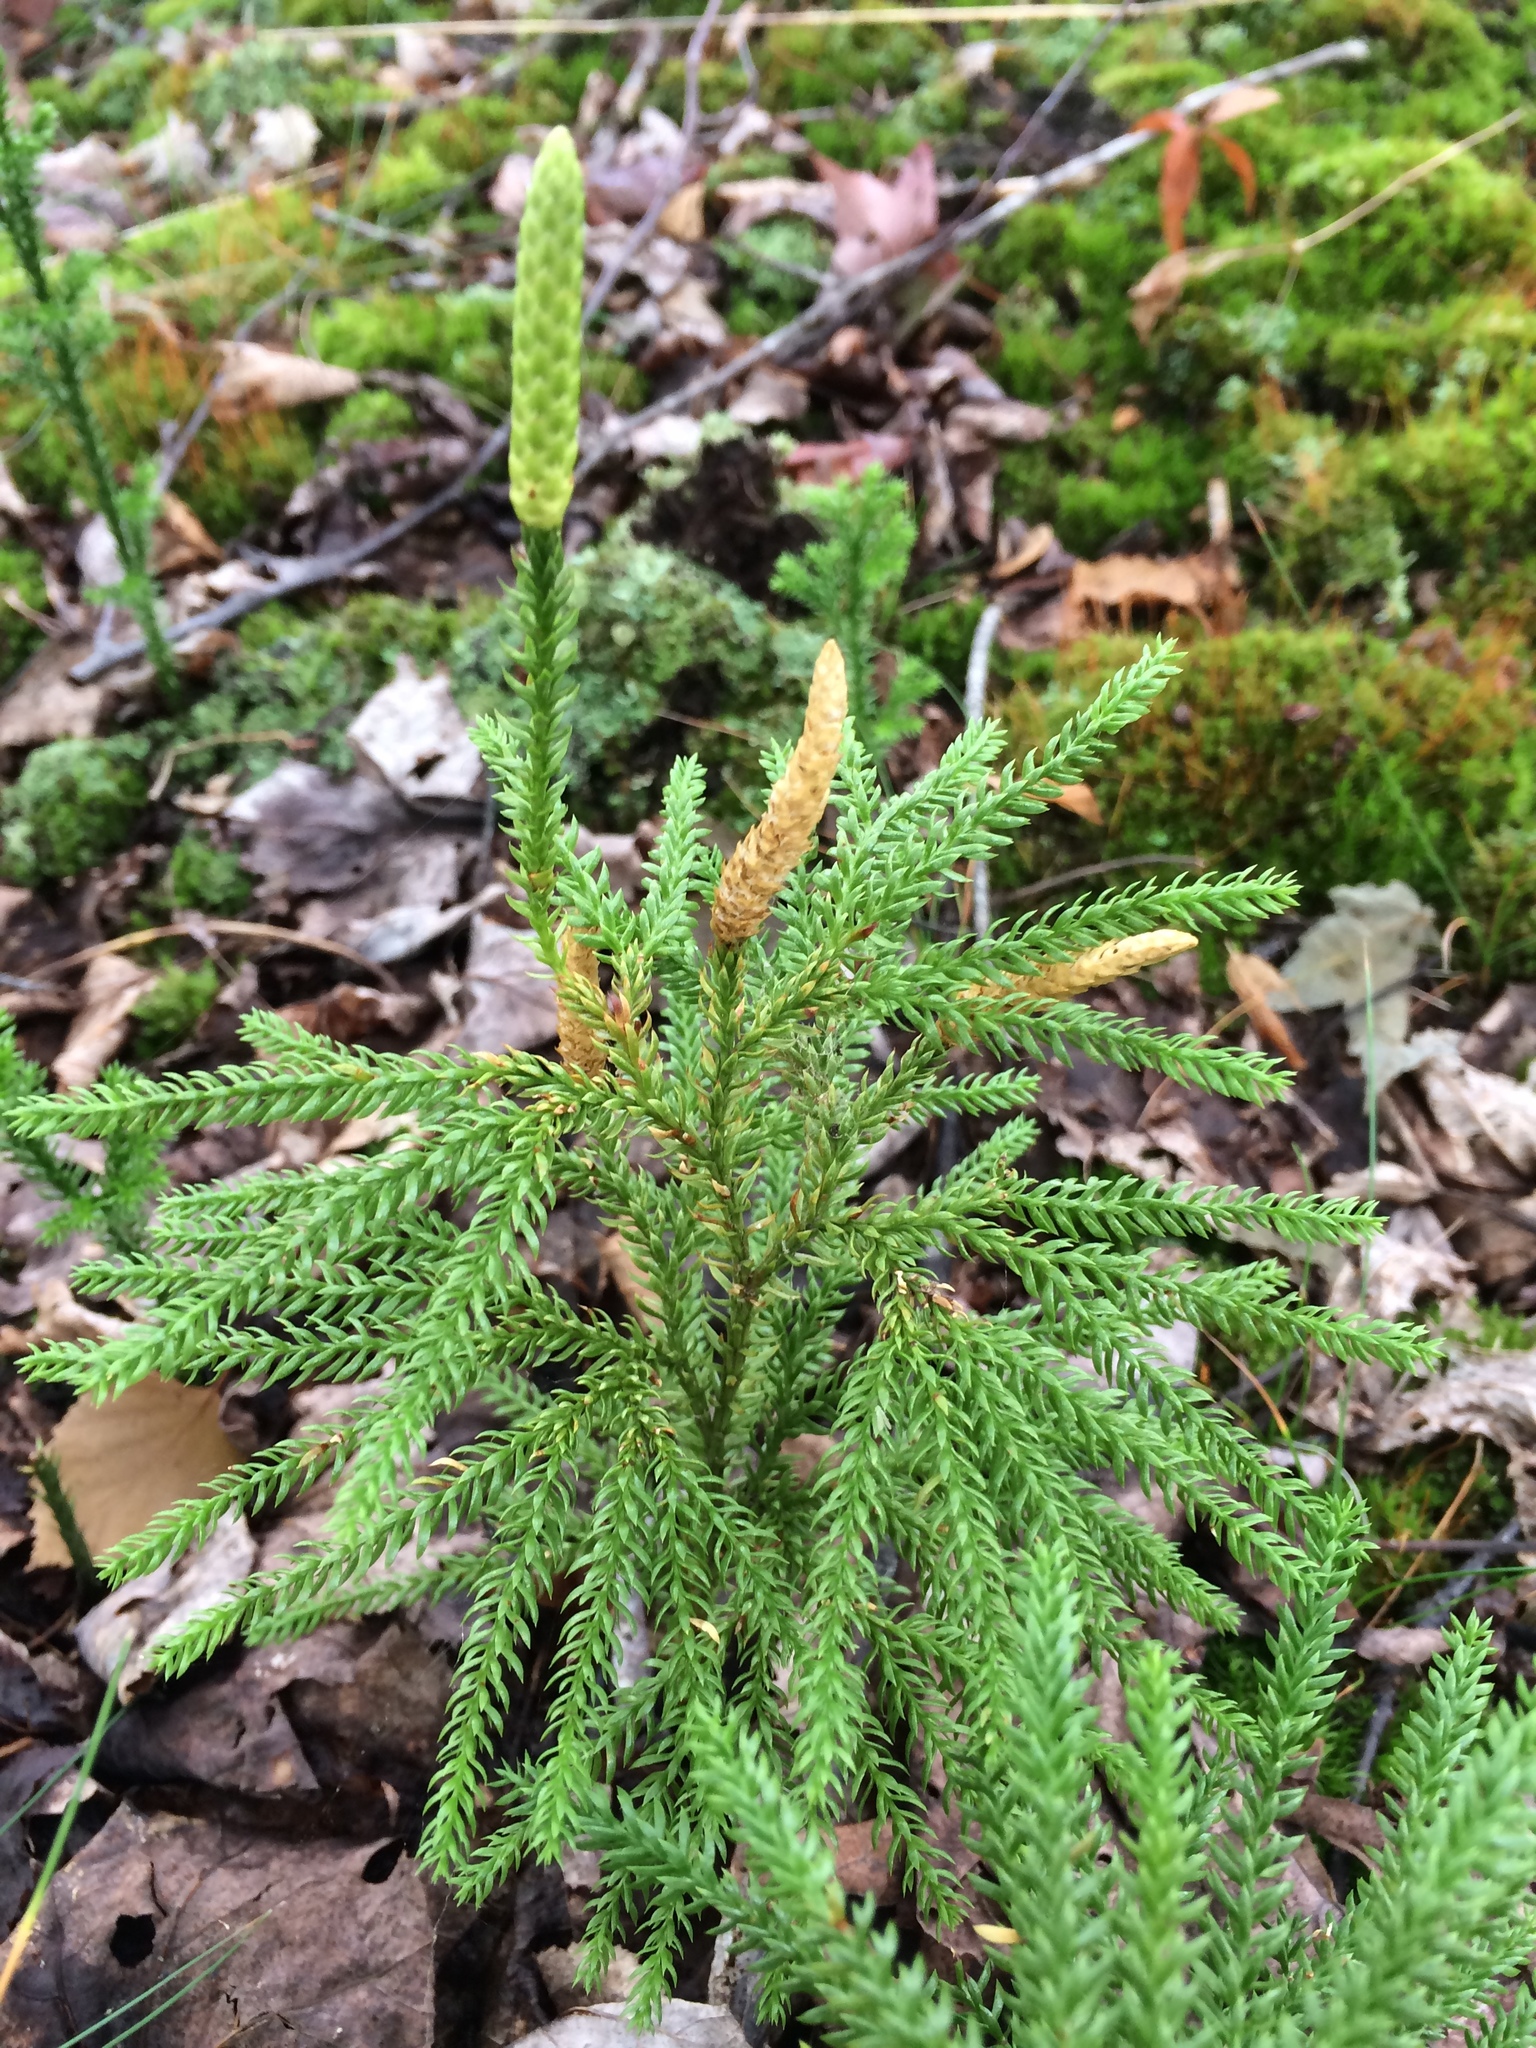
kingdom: Plantae
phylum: Tracheophyta
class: Lycopodiopsida
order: Lycopodiales
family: Lycopodiaceae
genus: Dendrolycopodium
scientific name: Dendrolycopodium dendroideum
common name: Northern tree-clubmoss
